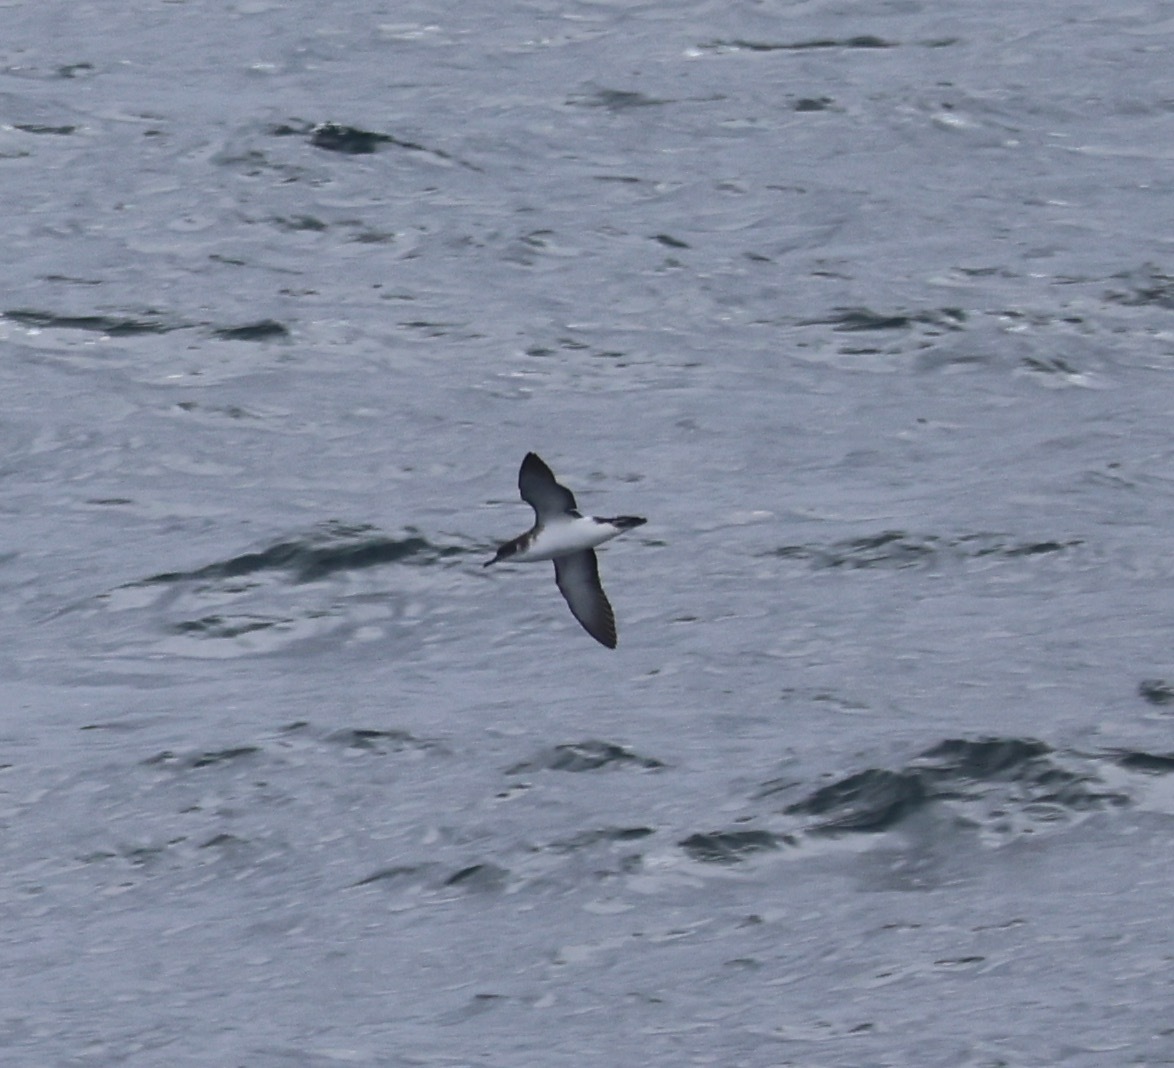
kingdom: Animalia
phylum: Chordata
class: Aves
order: Procellariiformes
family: Procellariidae
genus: Puffinus
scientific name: Puffinus puffinus
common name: Manx shearwater
